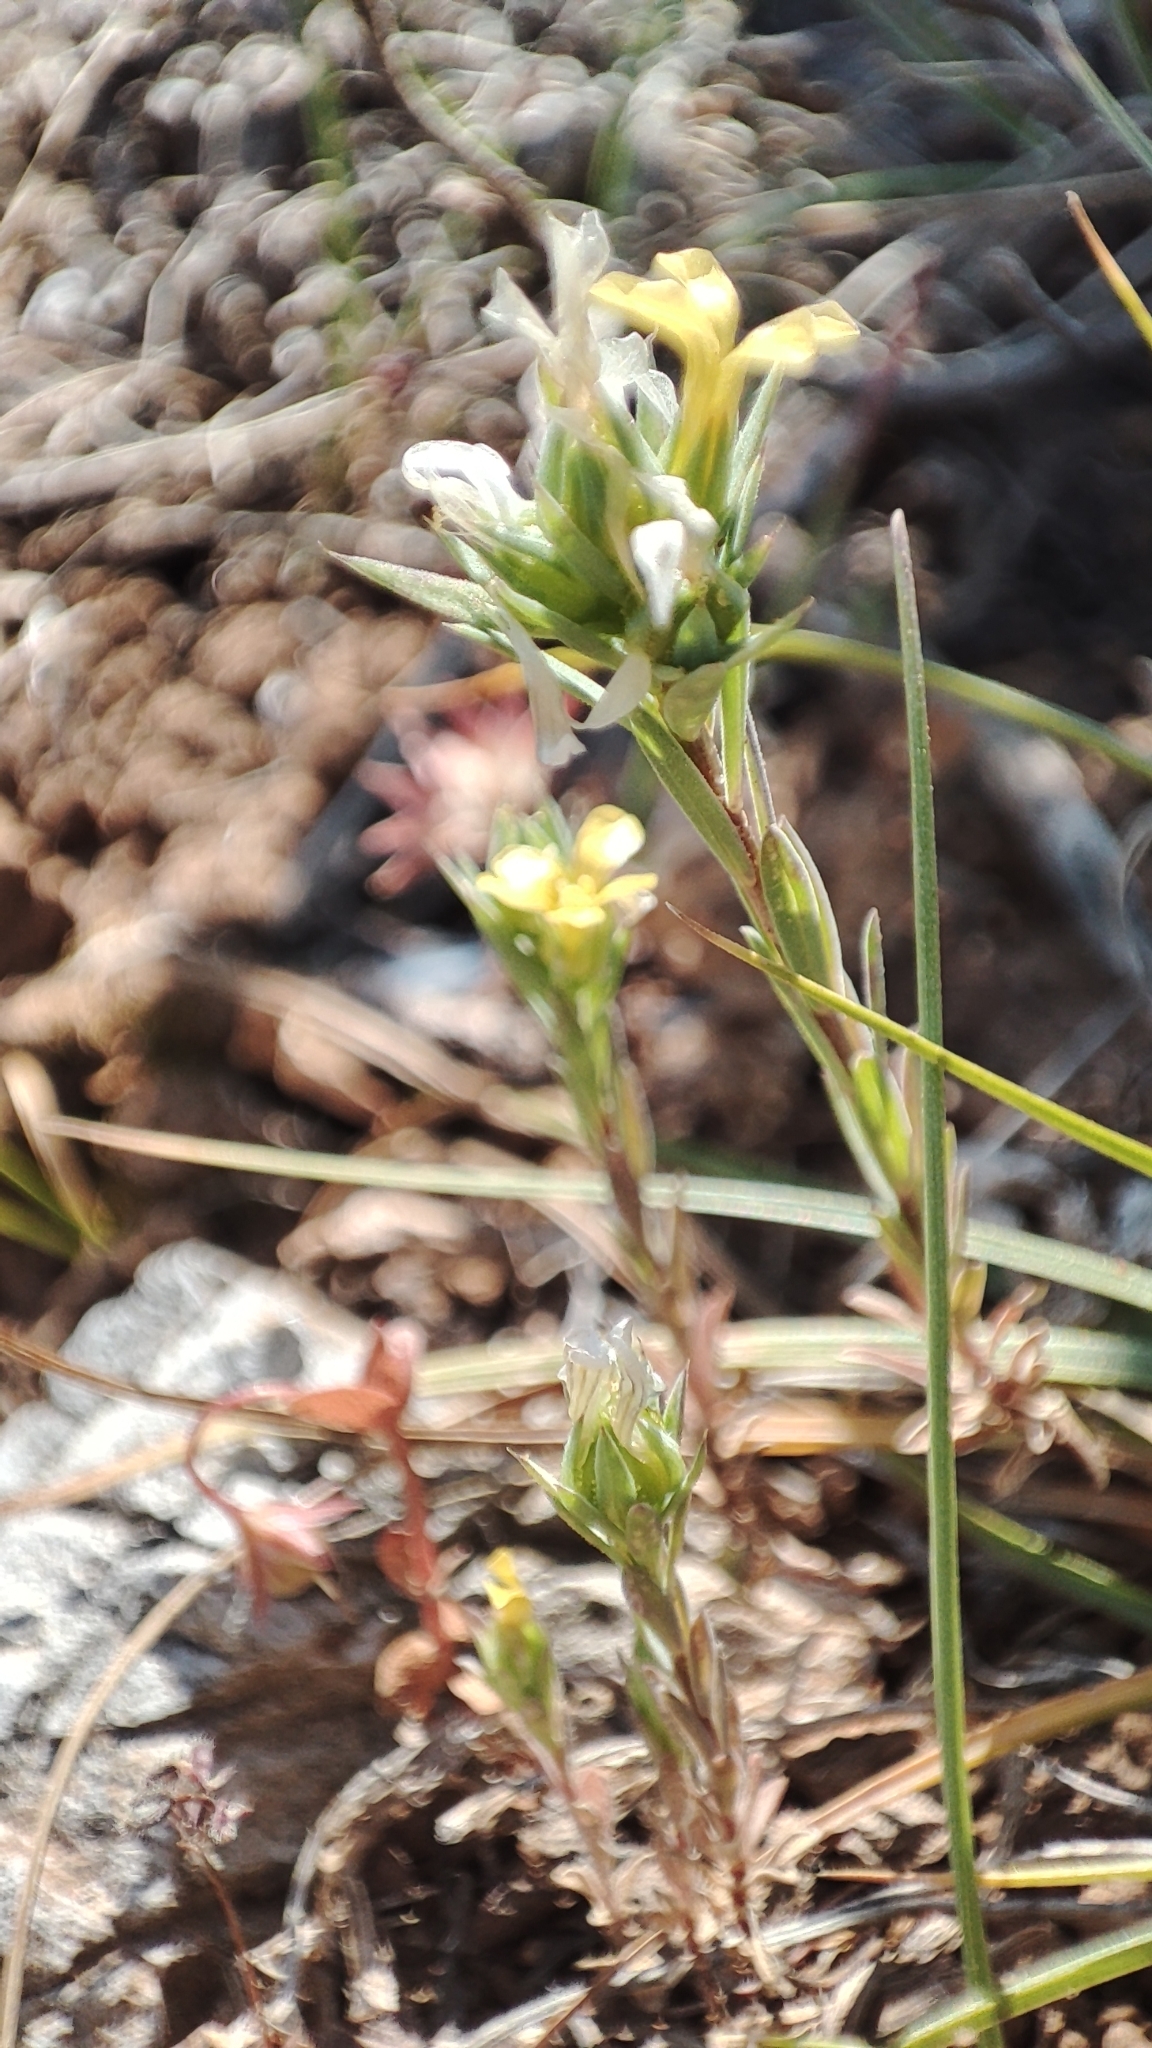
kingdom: Plantae
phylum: Tracheophyta
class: Magnoliopsida
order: Malpighiales
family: Linaceae
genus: Linum
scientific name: Linum strictum
